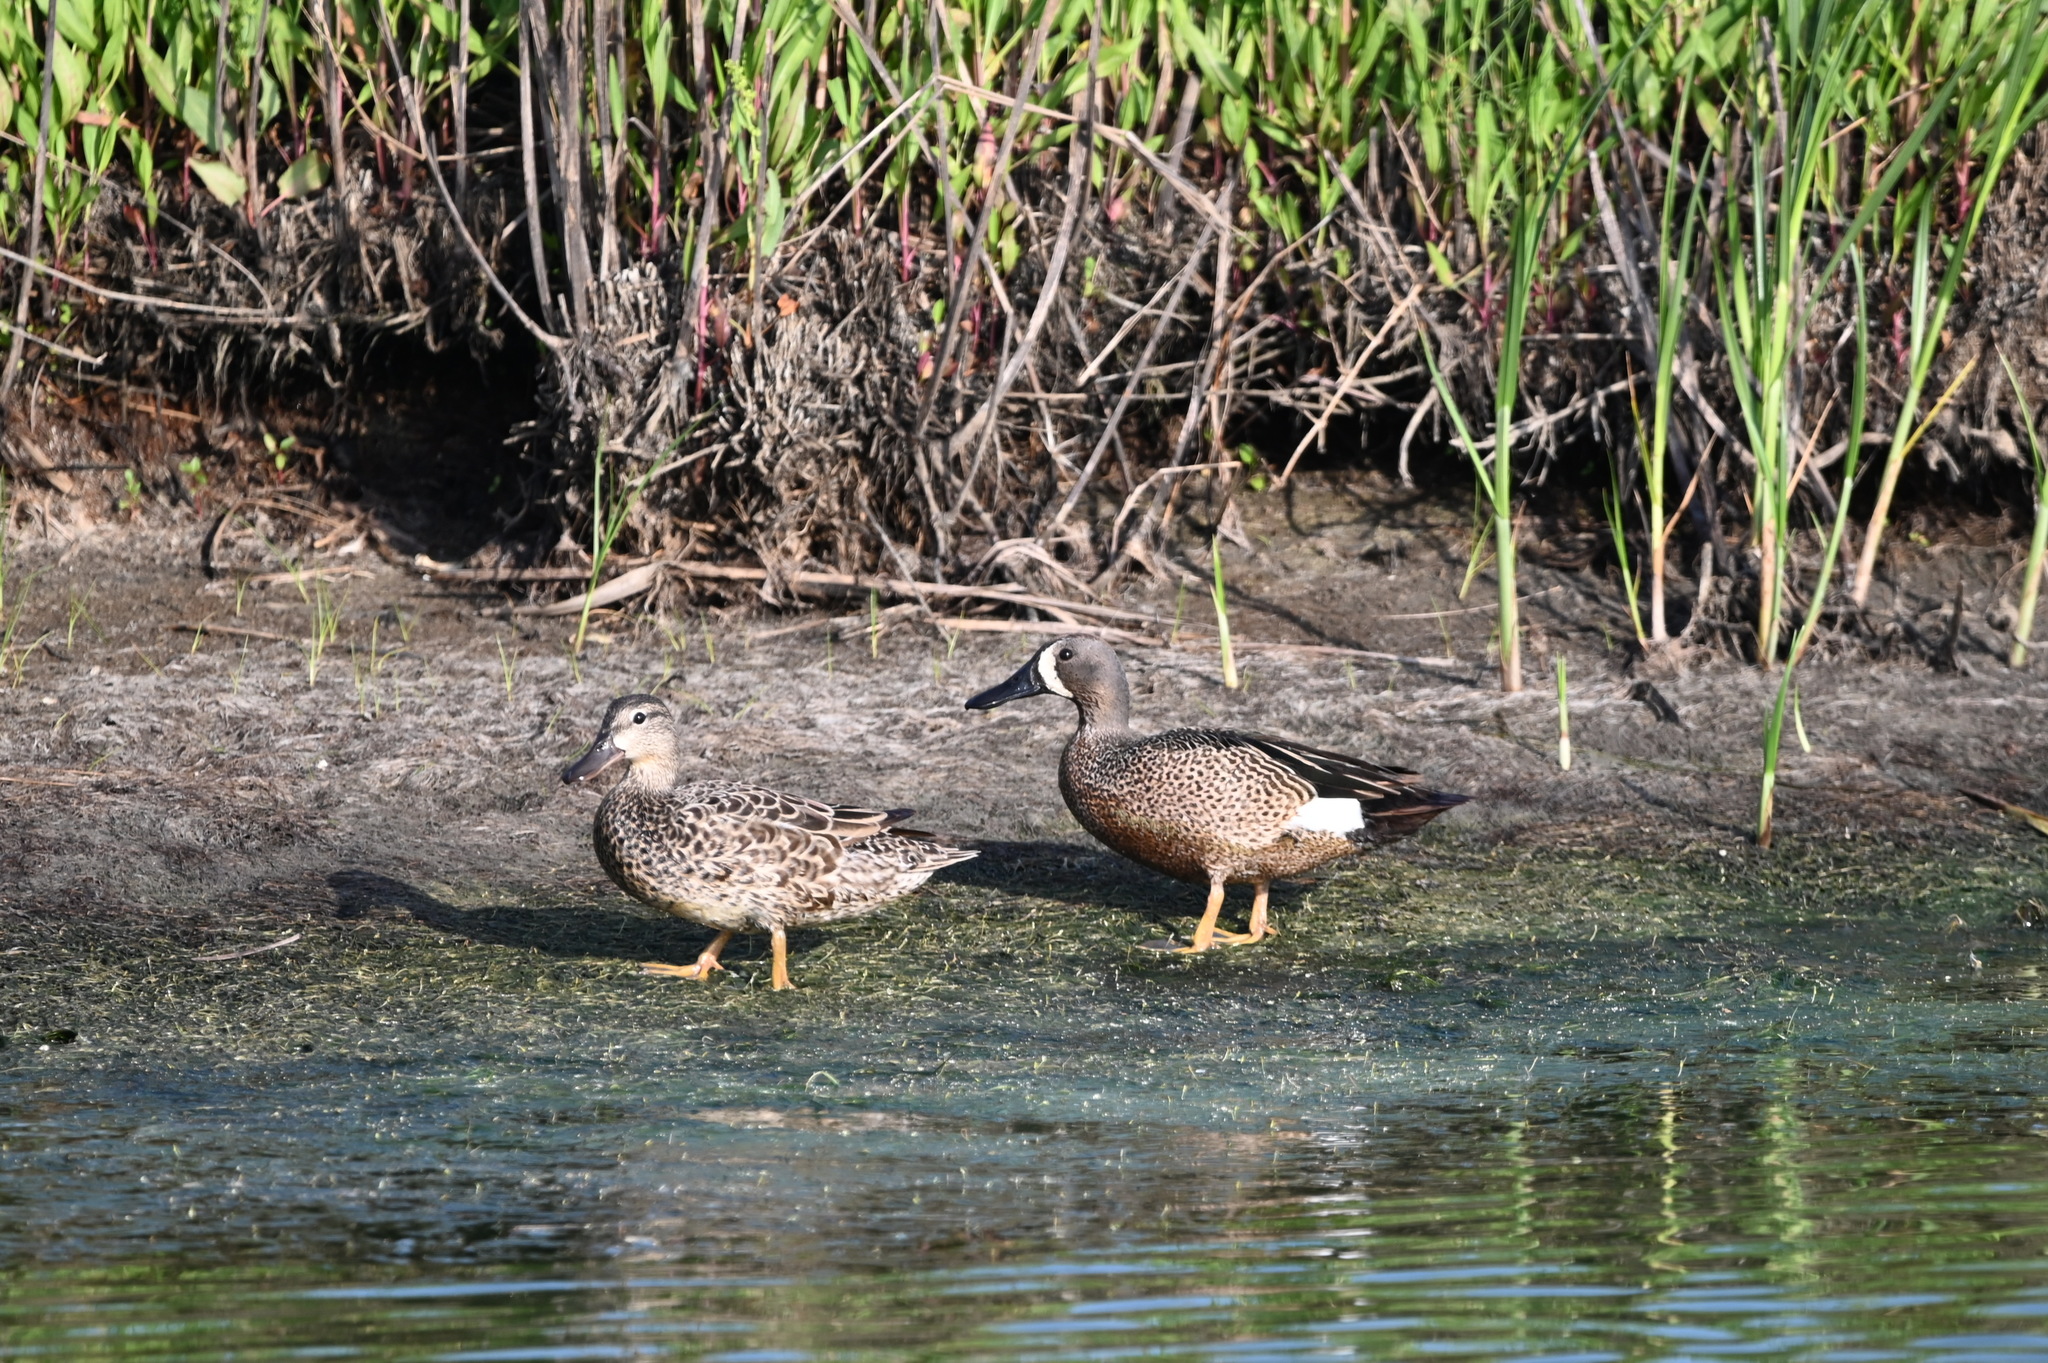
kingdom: Animalia
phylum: Chordata
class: Aves
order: Anseriformes
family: Anatidae
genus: Spatula
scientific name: Spatula discors
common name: Blue-winged teal
